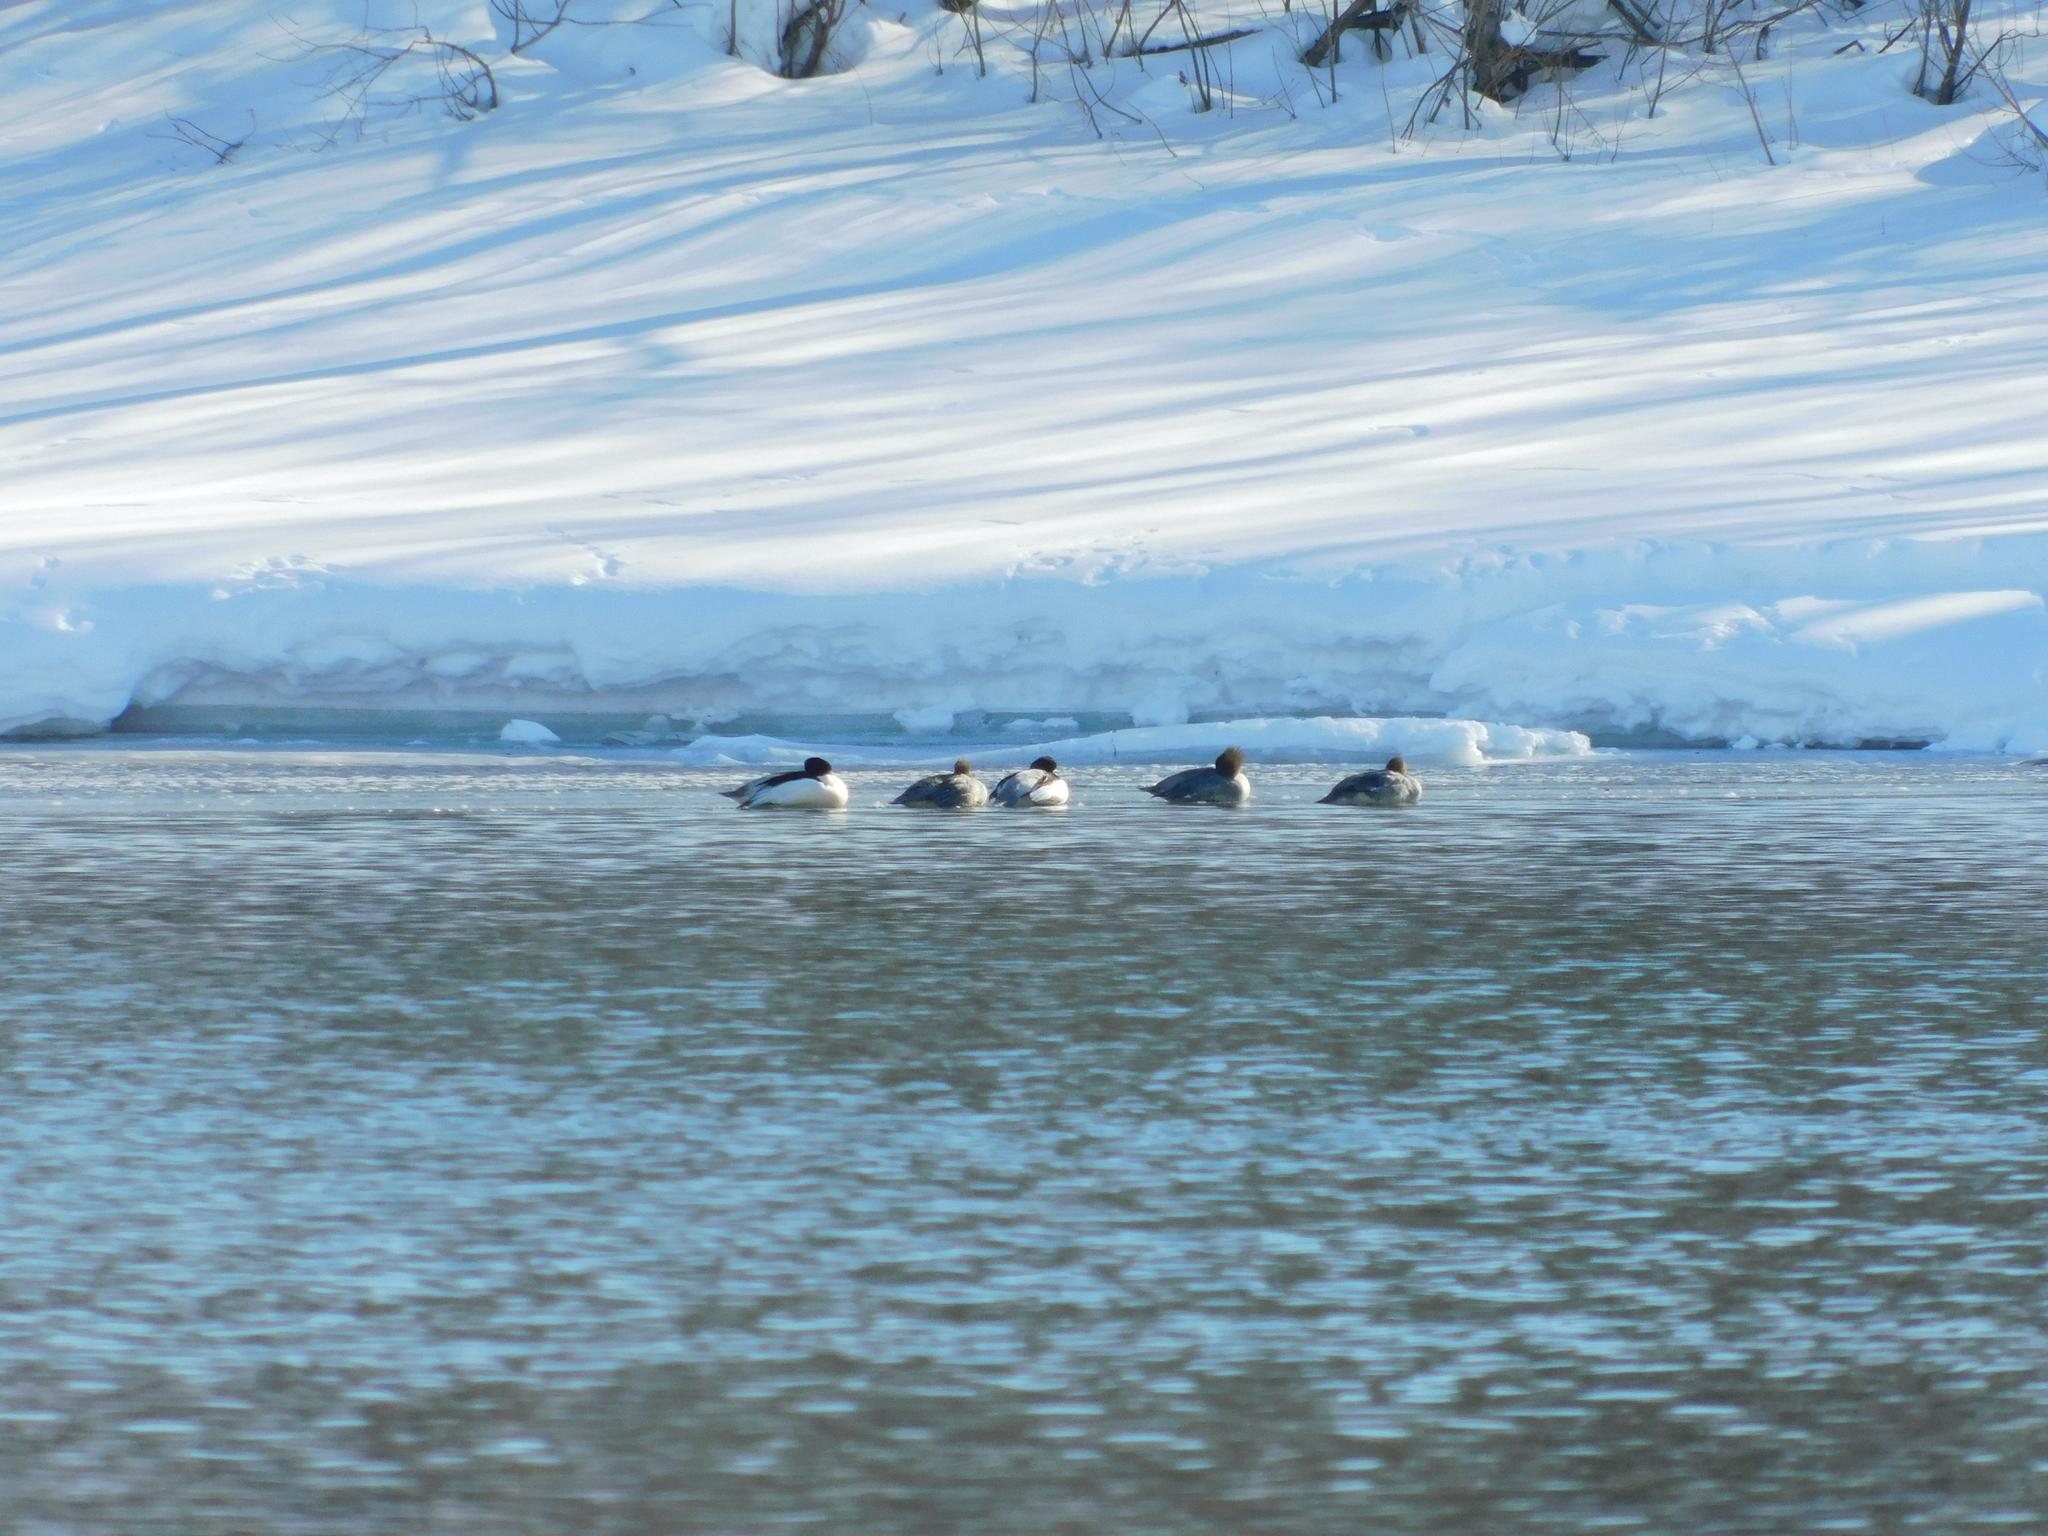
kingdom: Animalia
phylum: Chordata
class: Aves
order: Anseriformes
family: Anatidae
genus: Mergus
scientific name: Mergus merganser
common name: Common merganser
